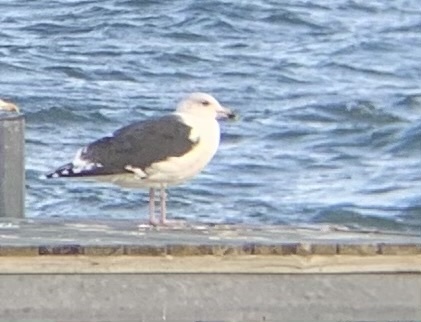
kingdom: Animalia
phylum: Chordata
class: Aves
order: Charadriiformes
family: Laridae
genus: Larus
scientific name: Larus marinus
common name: Great black-backed gull
